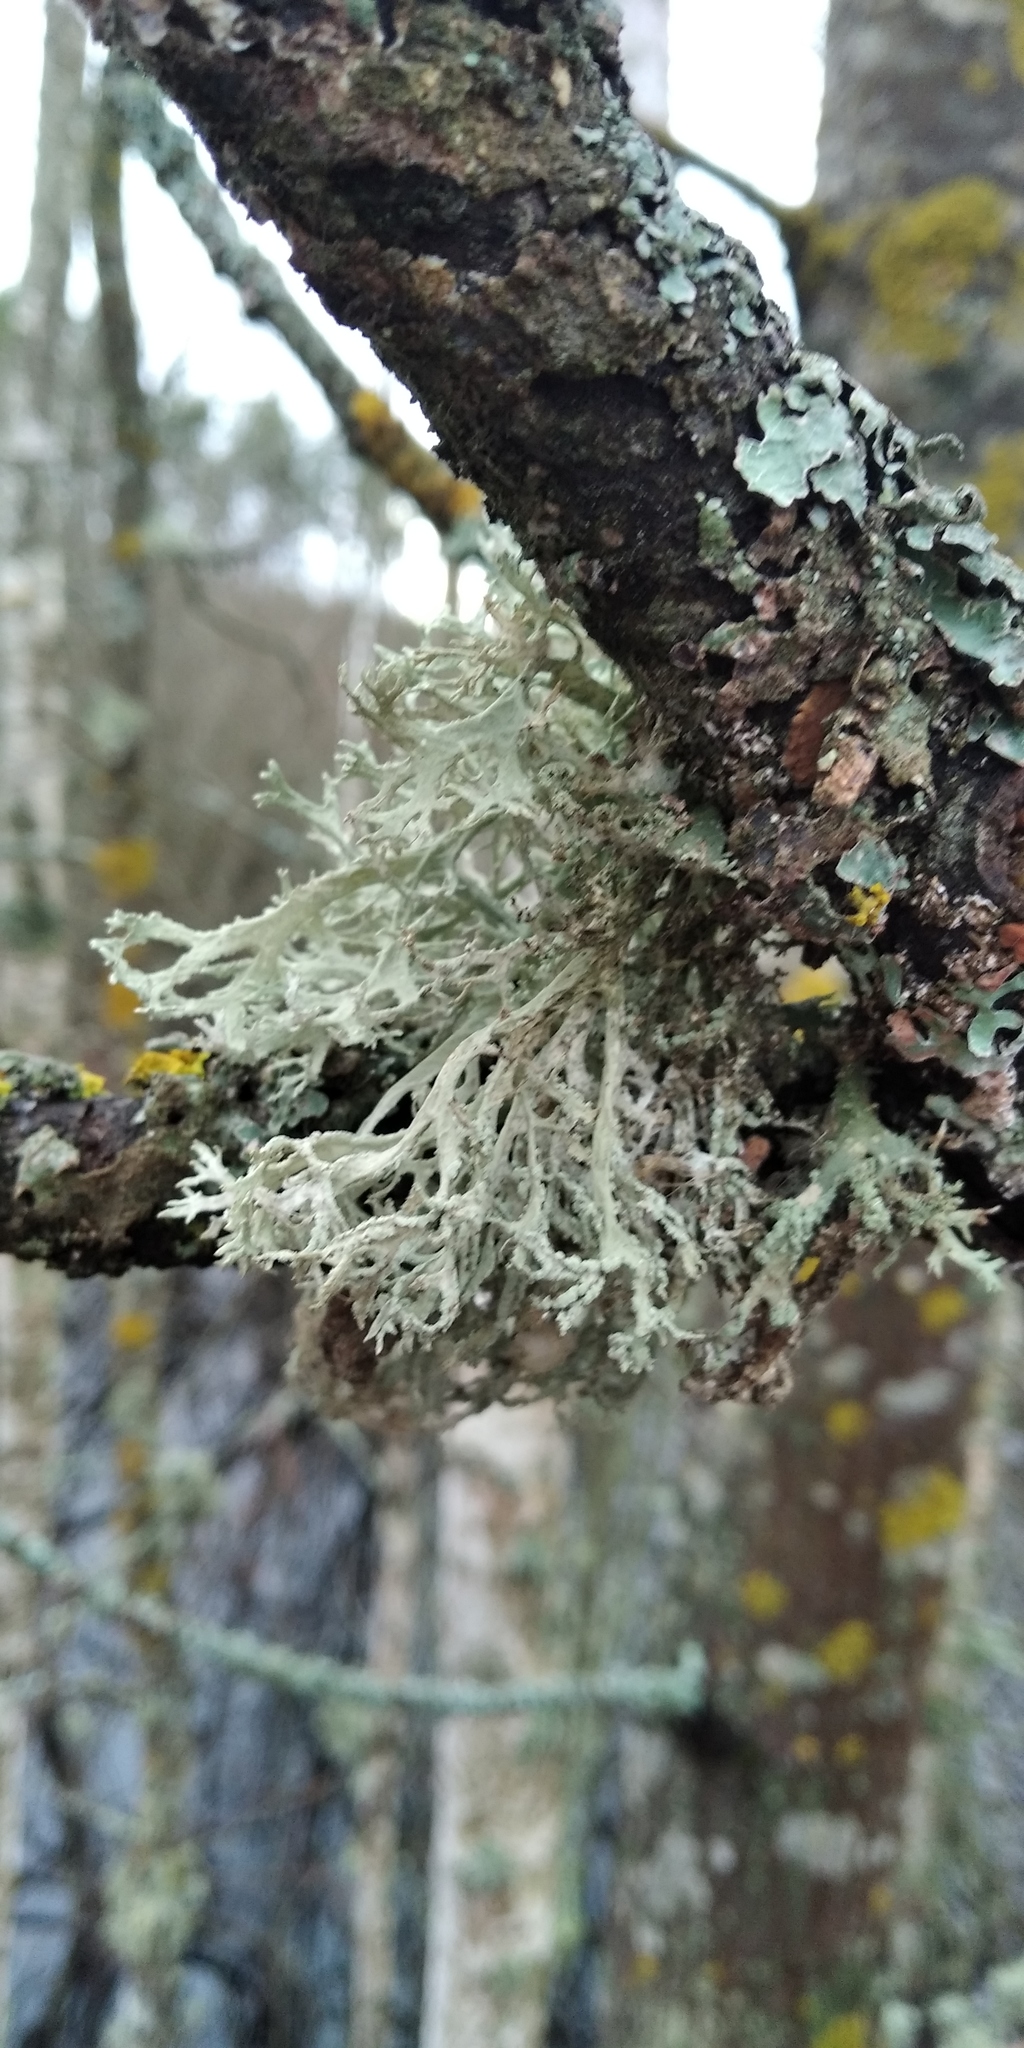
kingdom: Fungi
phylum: Ascomycota
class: Lecanoromycetes
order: Lecanorales
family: Parmeliaceae
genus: Evernia
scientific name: Evernia prunastri
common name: Oak moss
